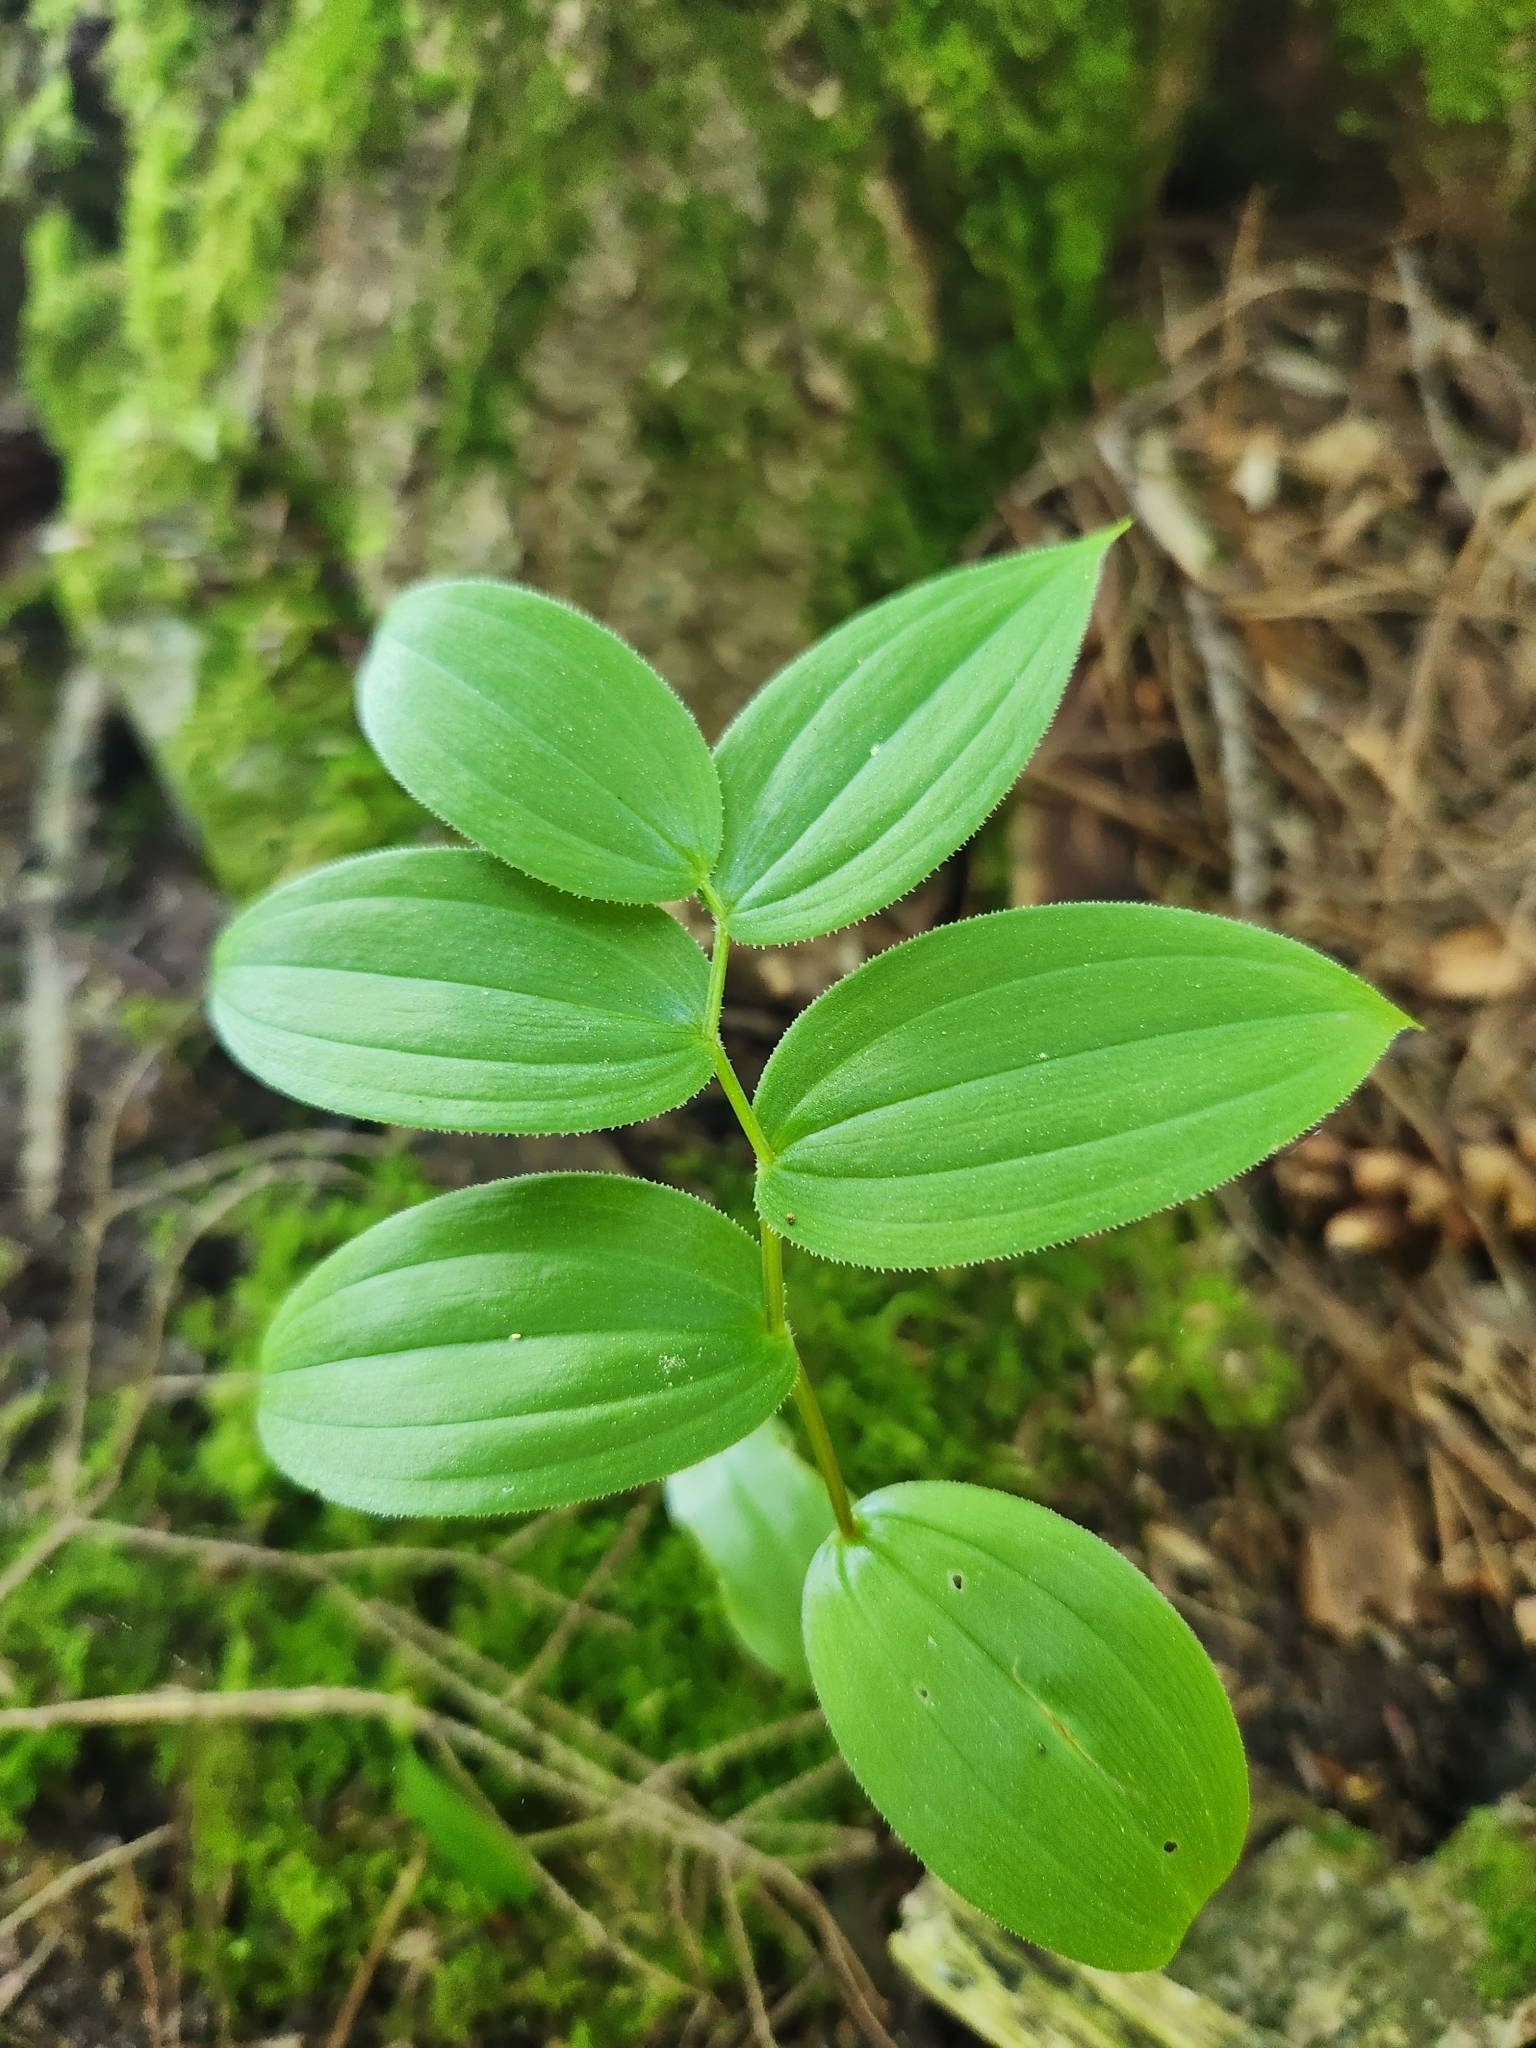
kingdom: Plantae
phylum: Tracheophyta
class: Liliopsida
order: Liliales
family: Liliaceae
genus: Streptopus
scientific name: Streptopus lanceolatus
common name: Rose mandarin
